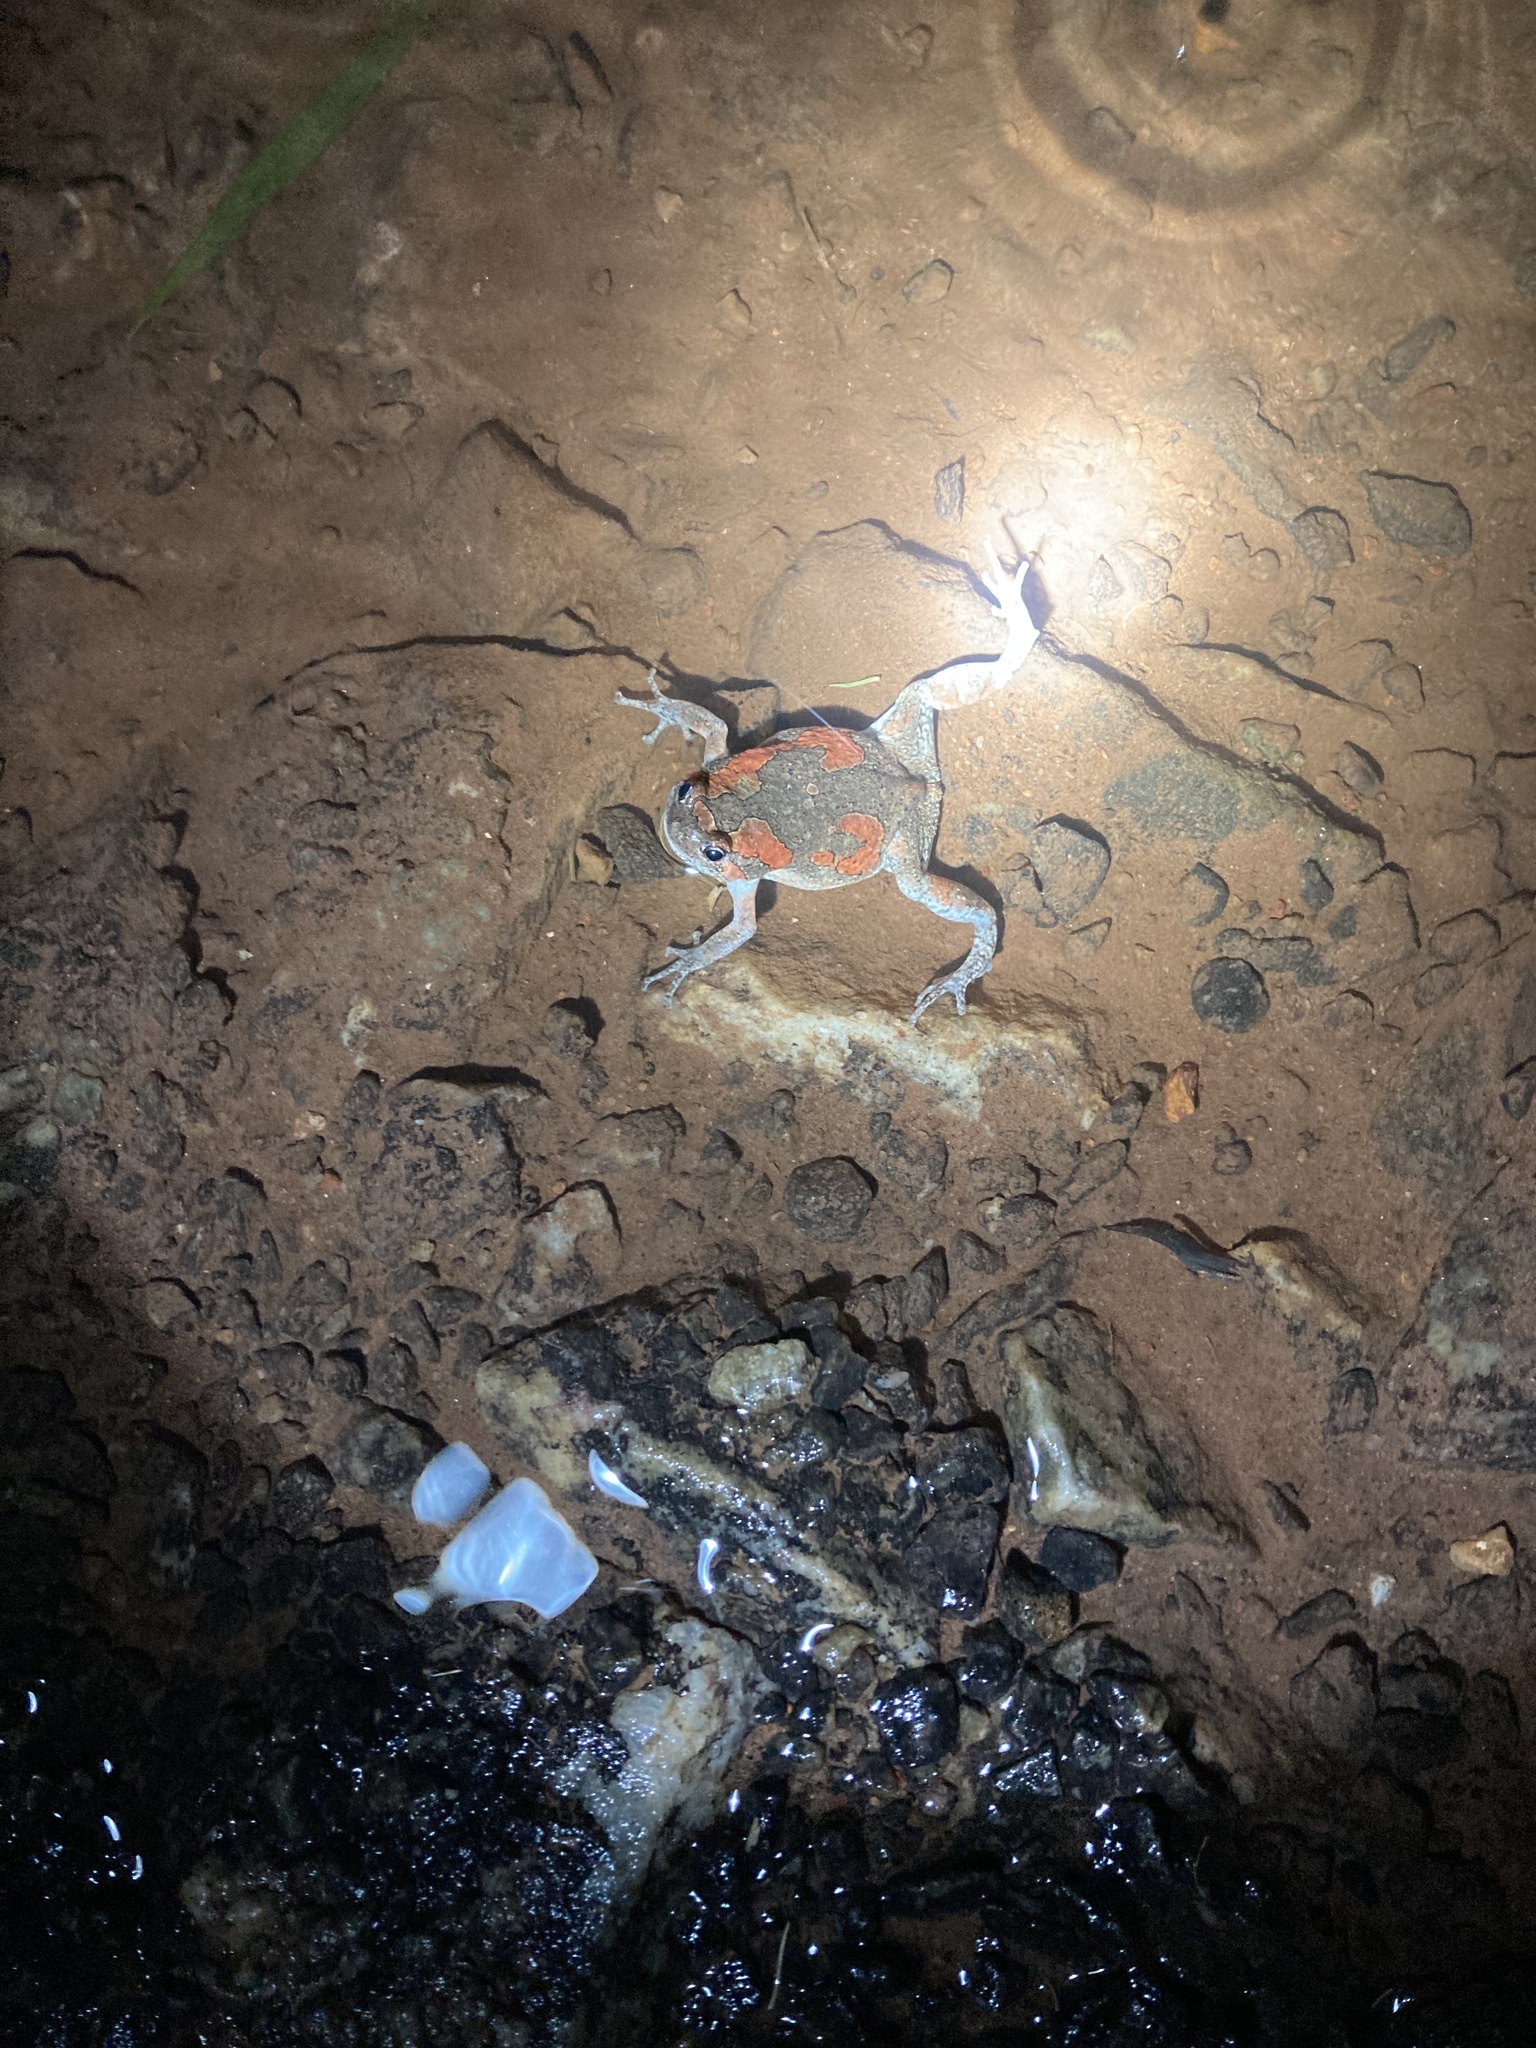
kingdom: Animalia
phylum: Chordata
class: Amphibia
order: Anura
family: Microhylidae
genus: Uperodon
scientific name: Uperodon taprobanicus
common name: Ceylon kaloula
